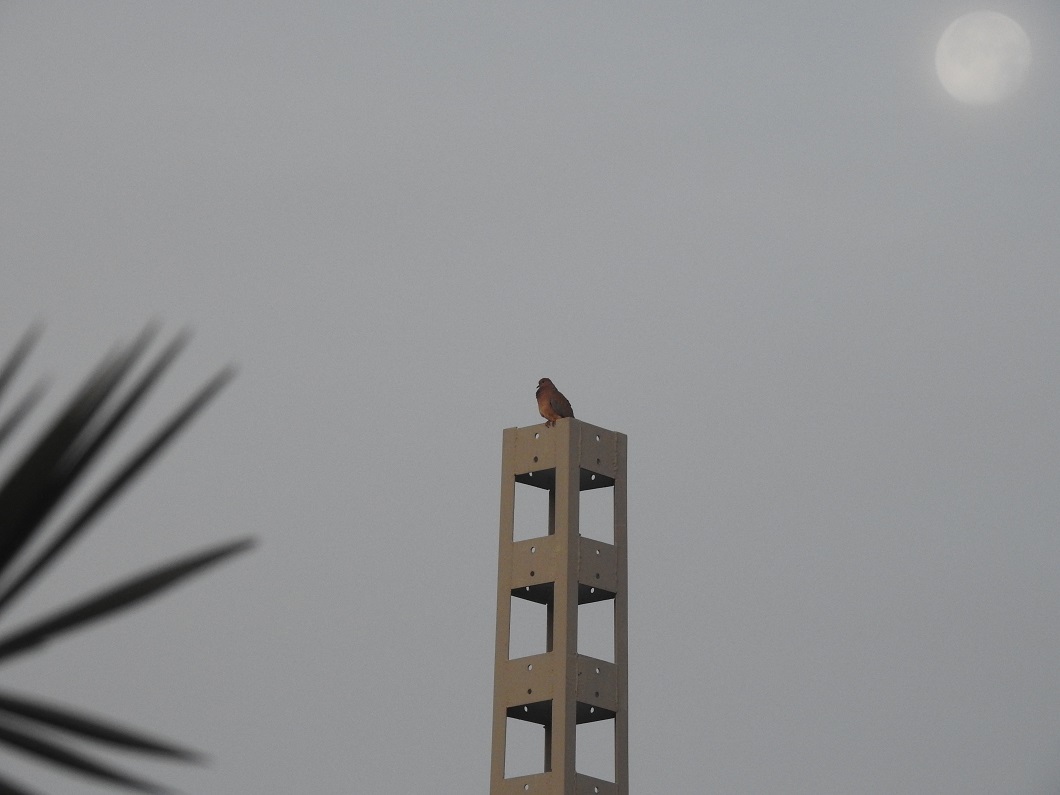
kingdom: Animalia
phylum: Chordata
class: Aves
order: Columbiformes
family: Columbidae
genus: Spilopelia
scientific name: Spilopelia senegalensis
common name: Laughing dove
